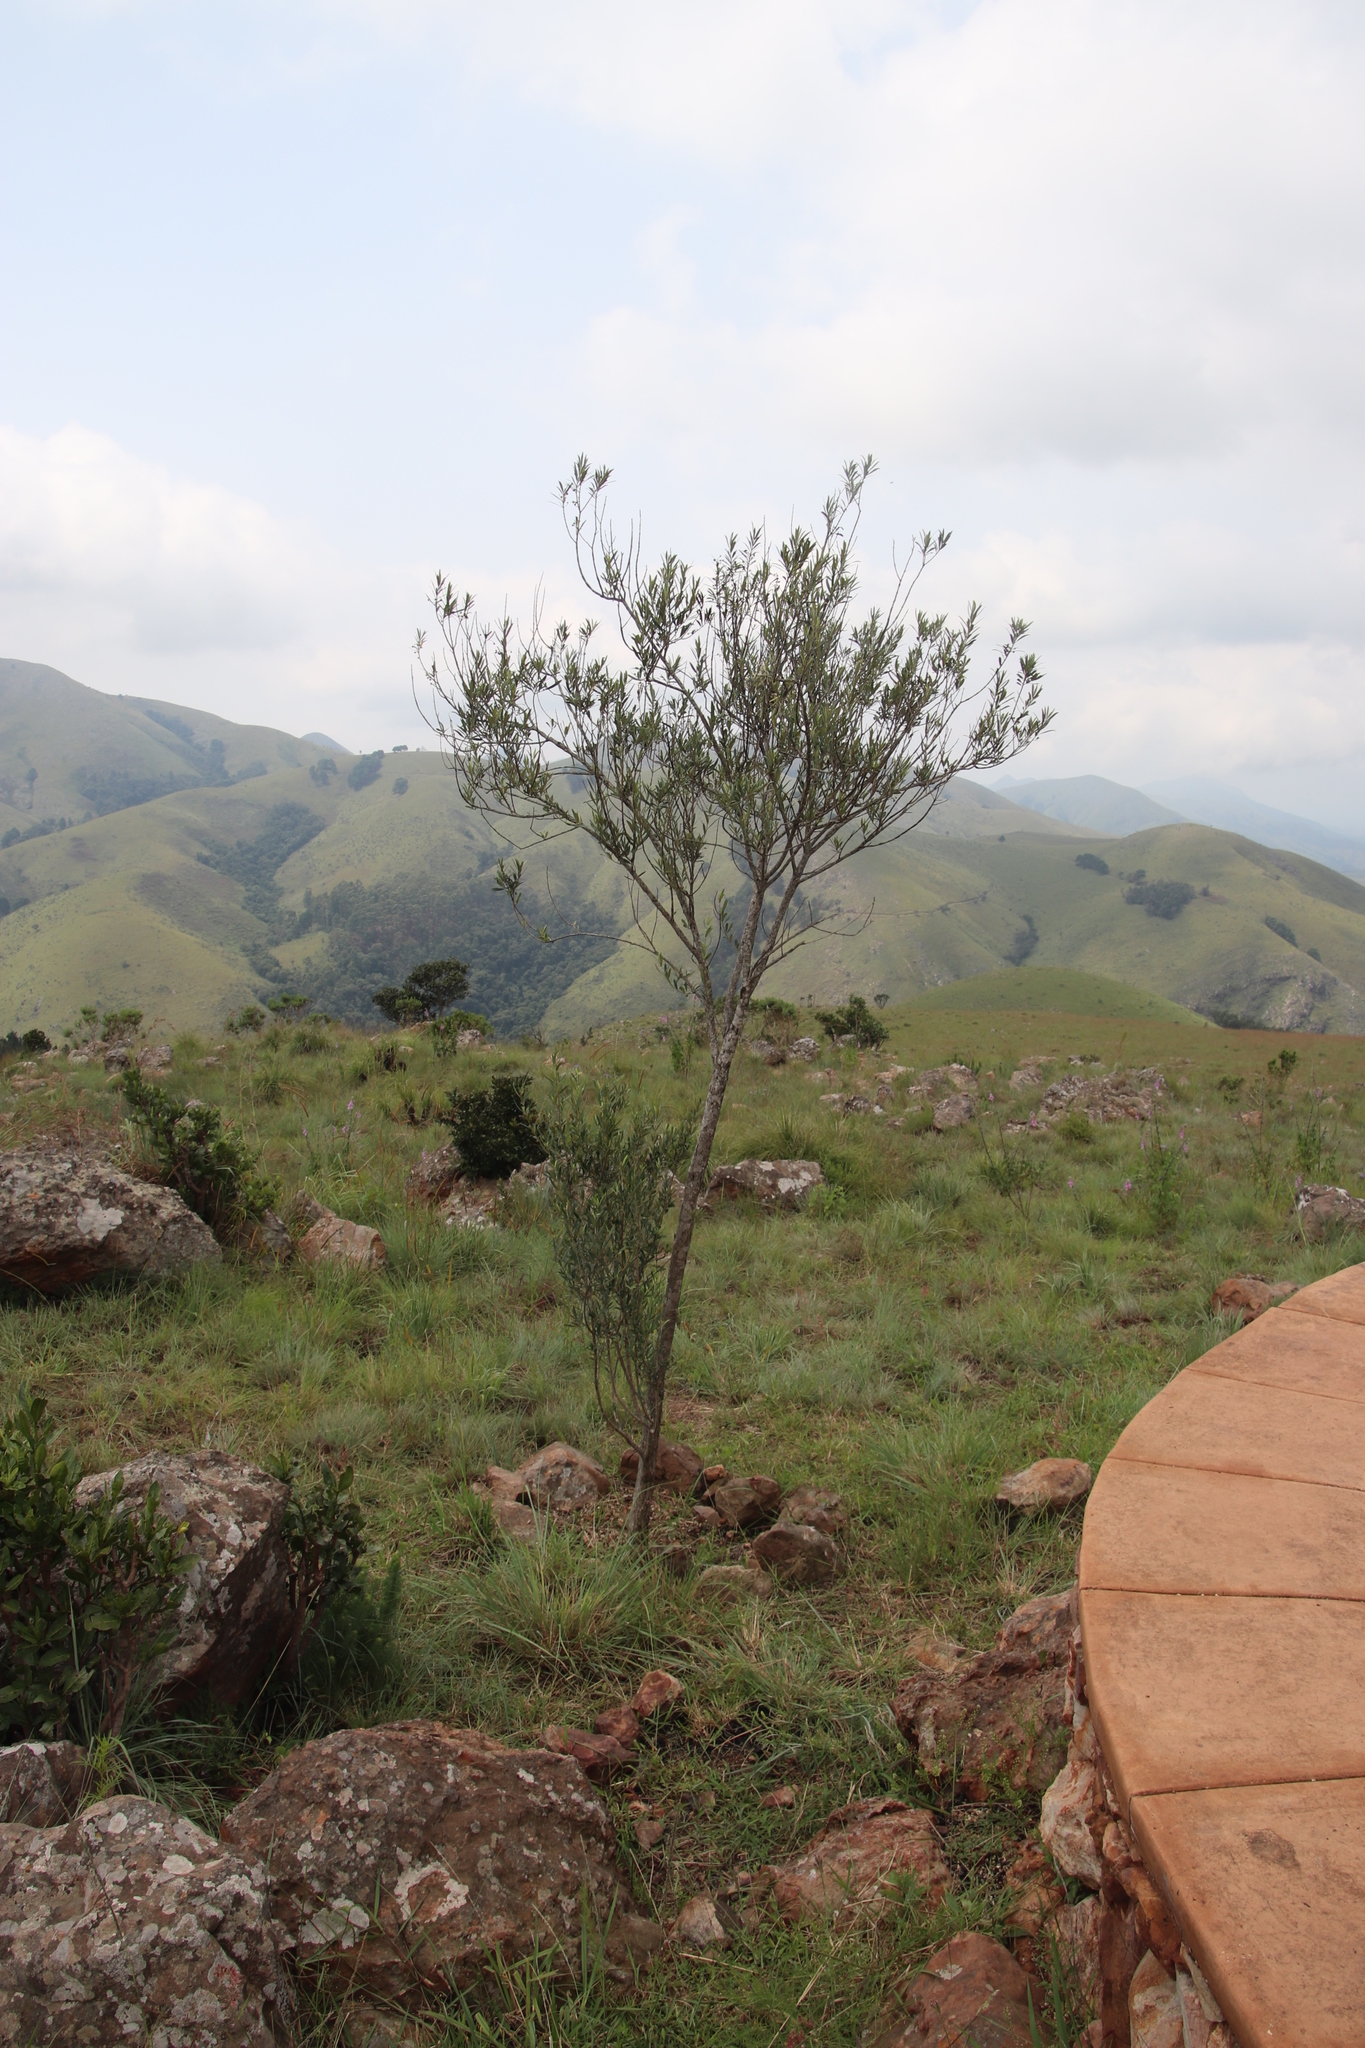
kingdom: Plantae
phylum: Tracheophyta
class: Magnoliopsida
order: Lamiales
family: Oleaceae
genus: Olea
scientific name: Olea europaea
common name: Olive
